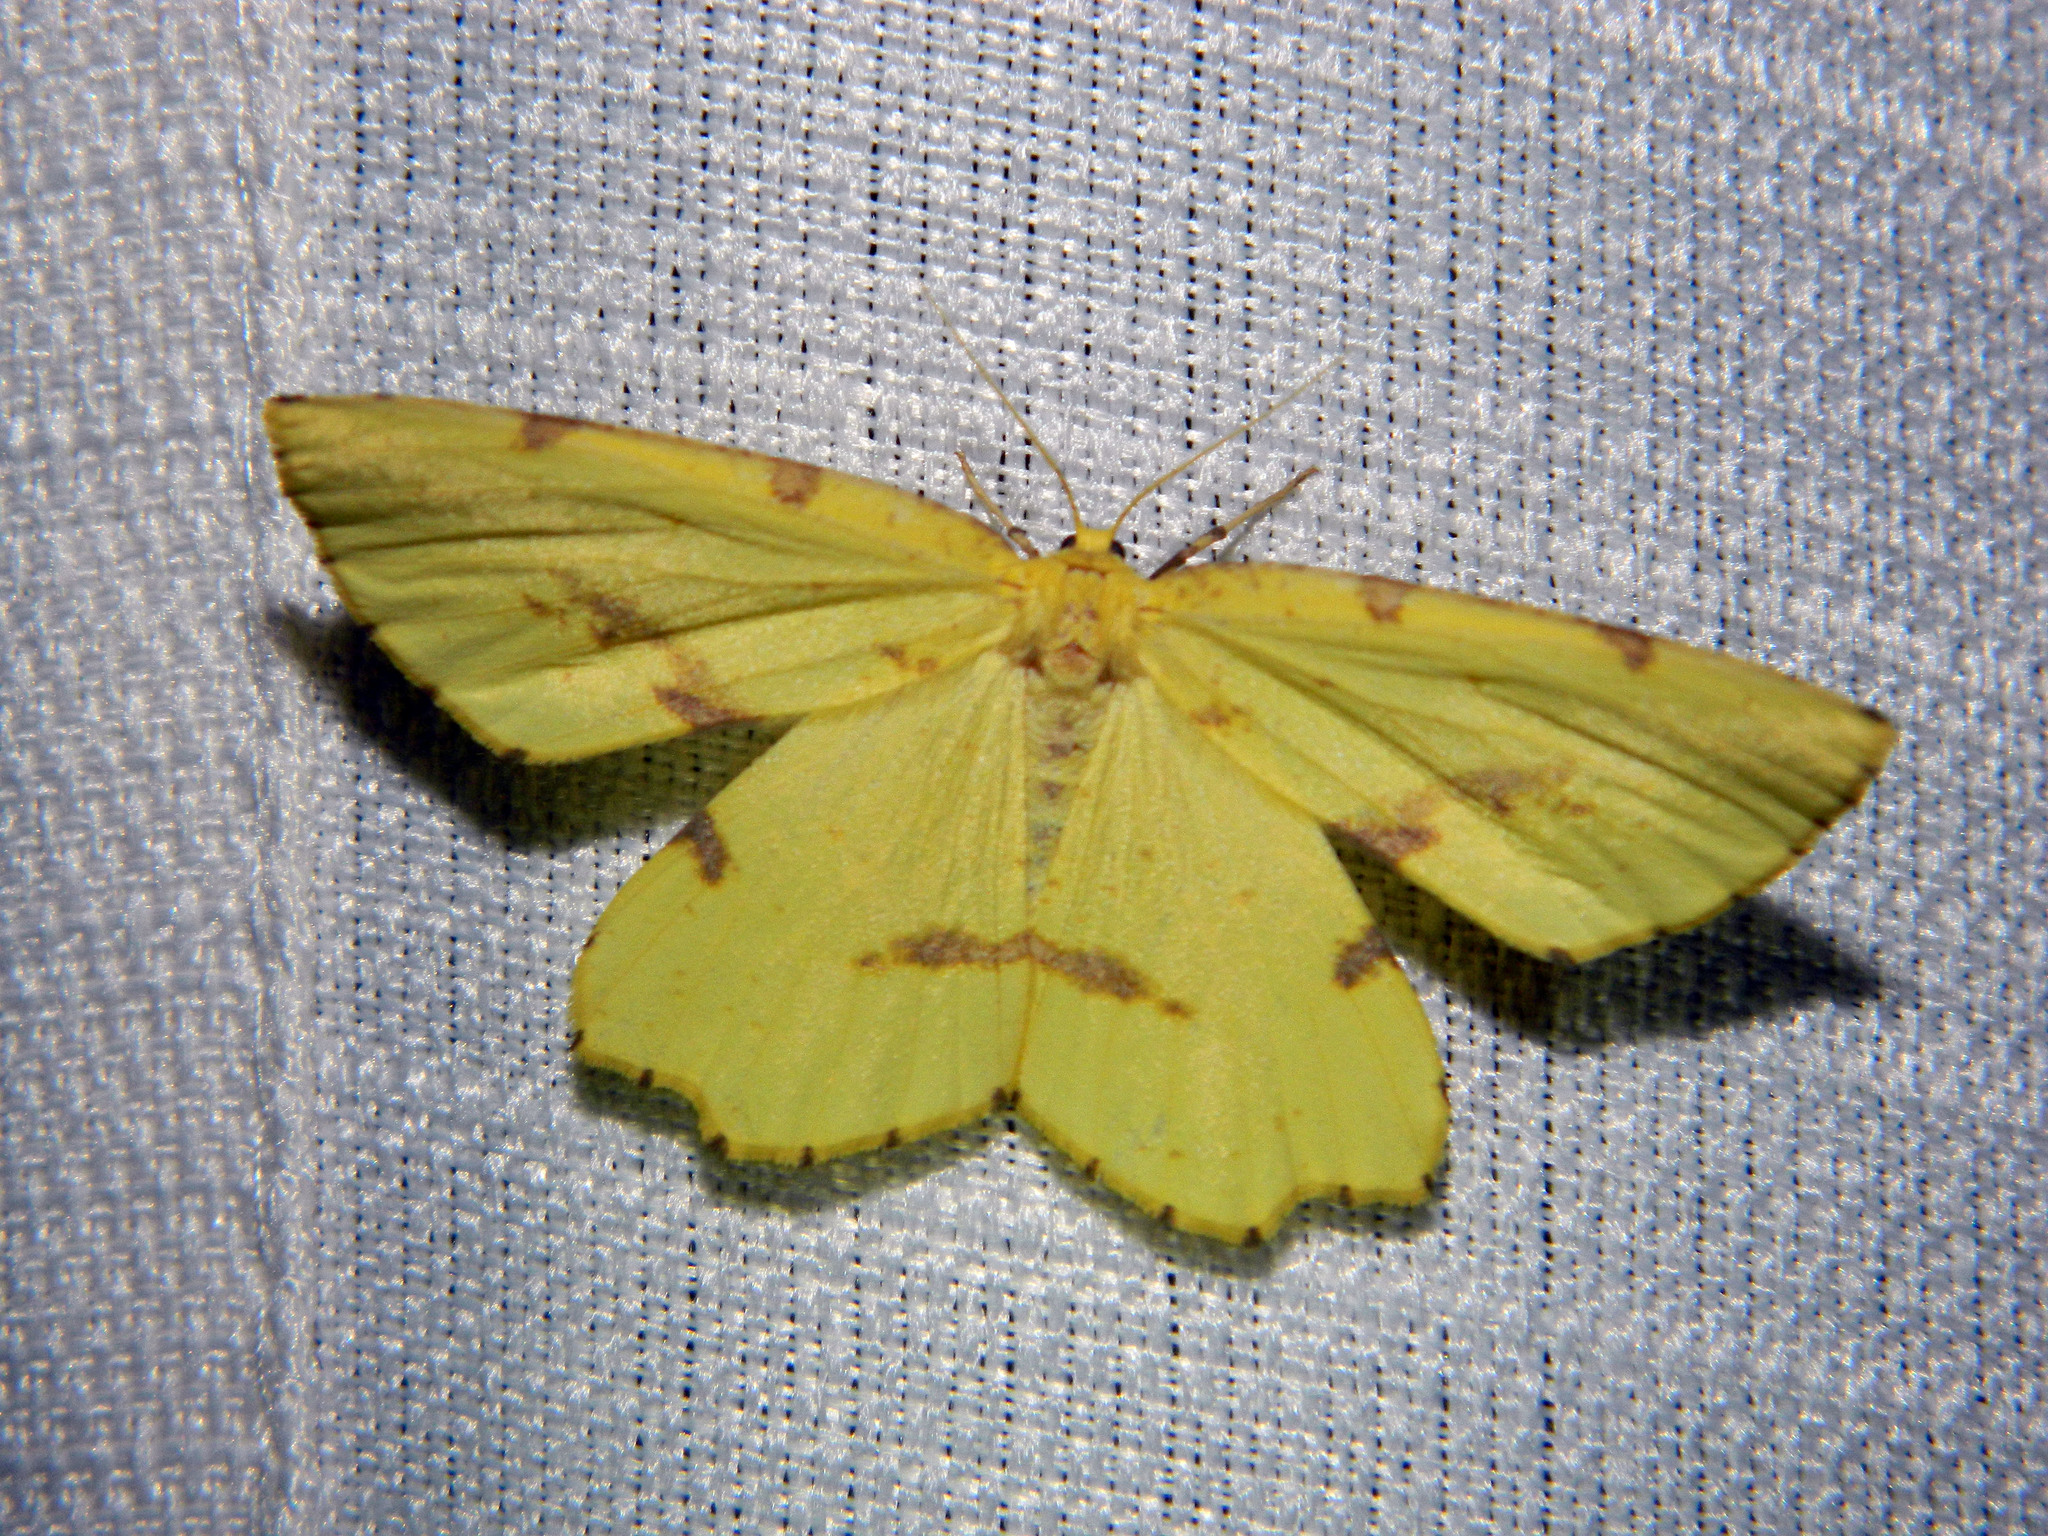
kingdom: Animalia
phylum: Arthropoda
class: Insecta
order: Lepidoptera
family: Geometridae
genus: Xanthotype
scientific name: Xanthotype
